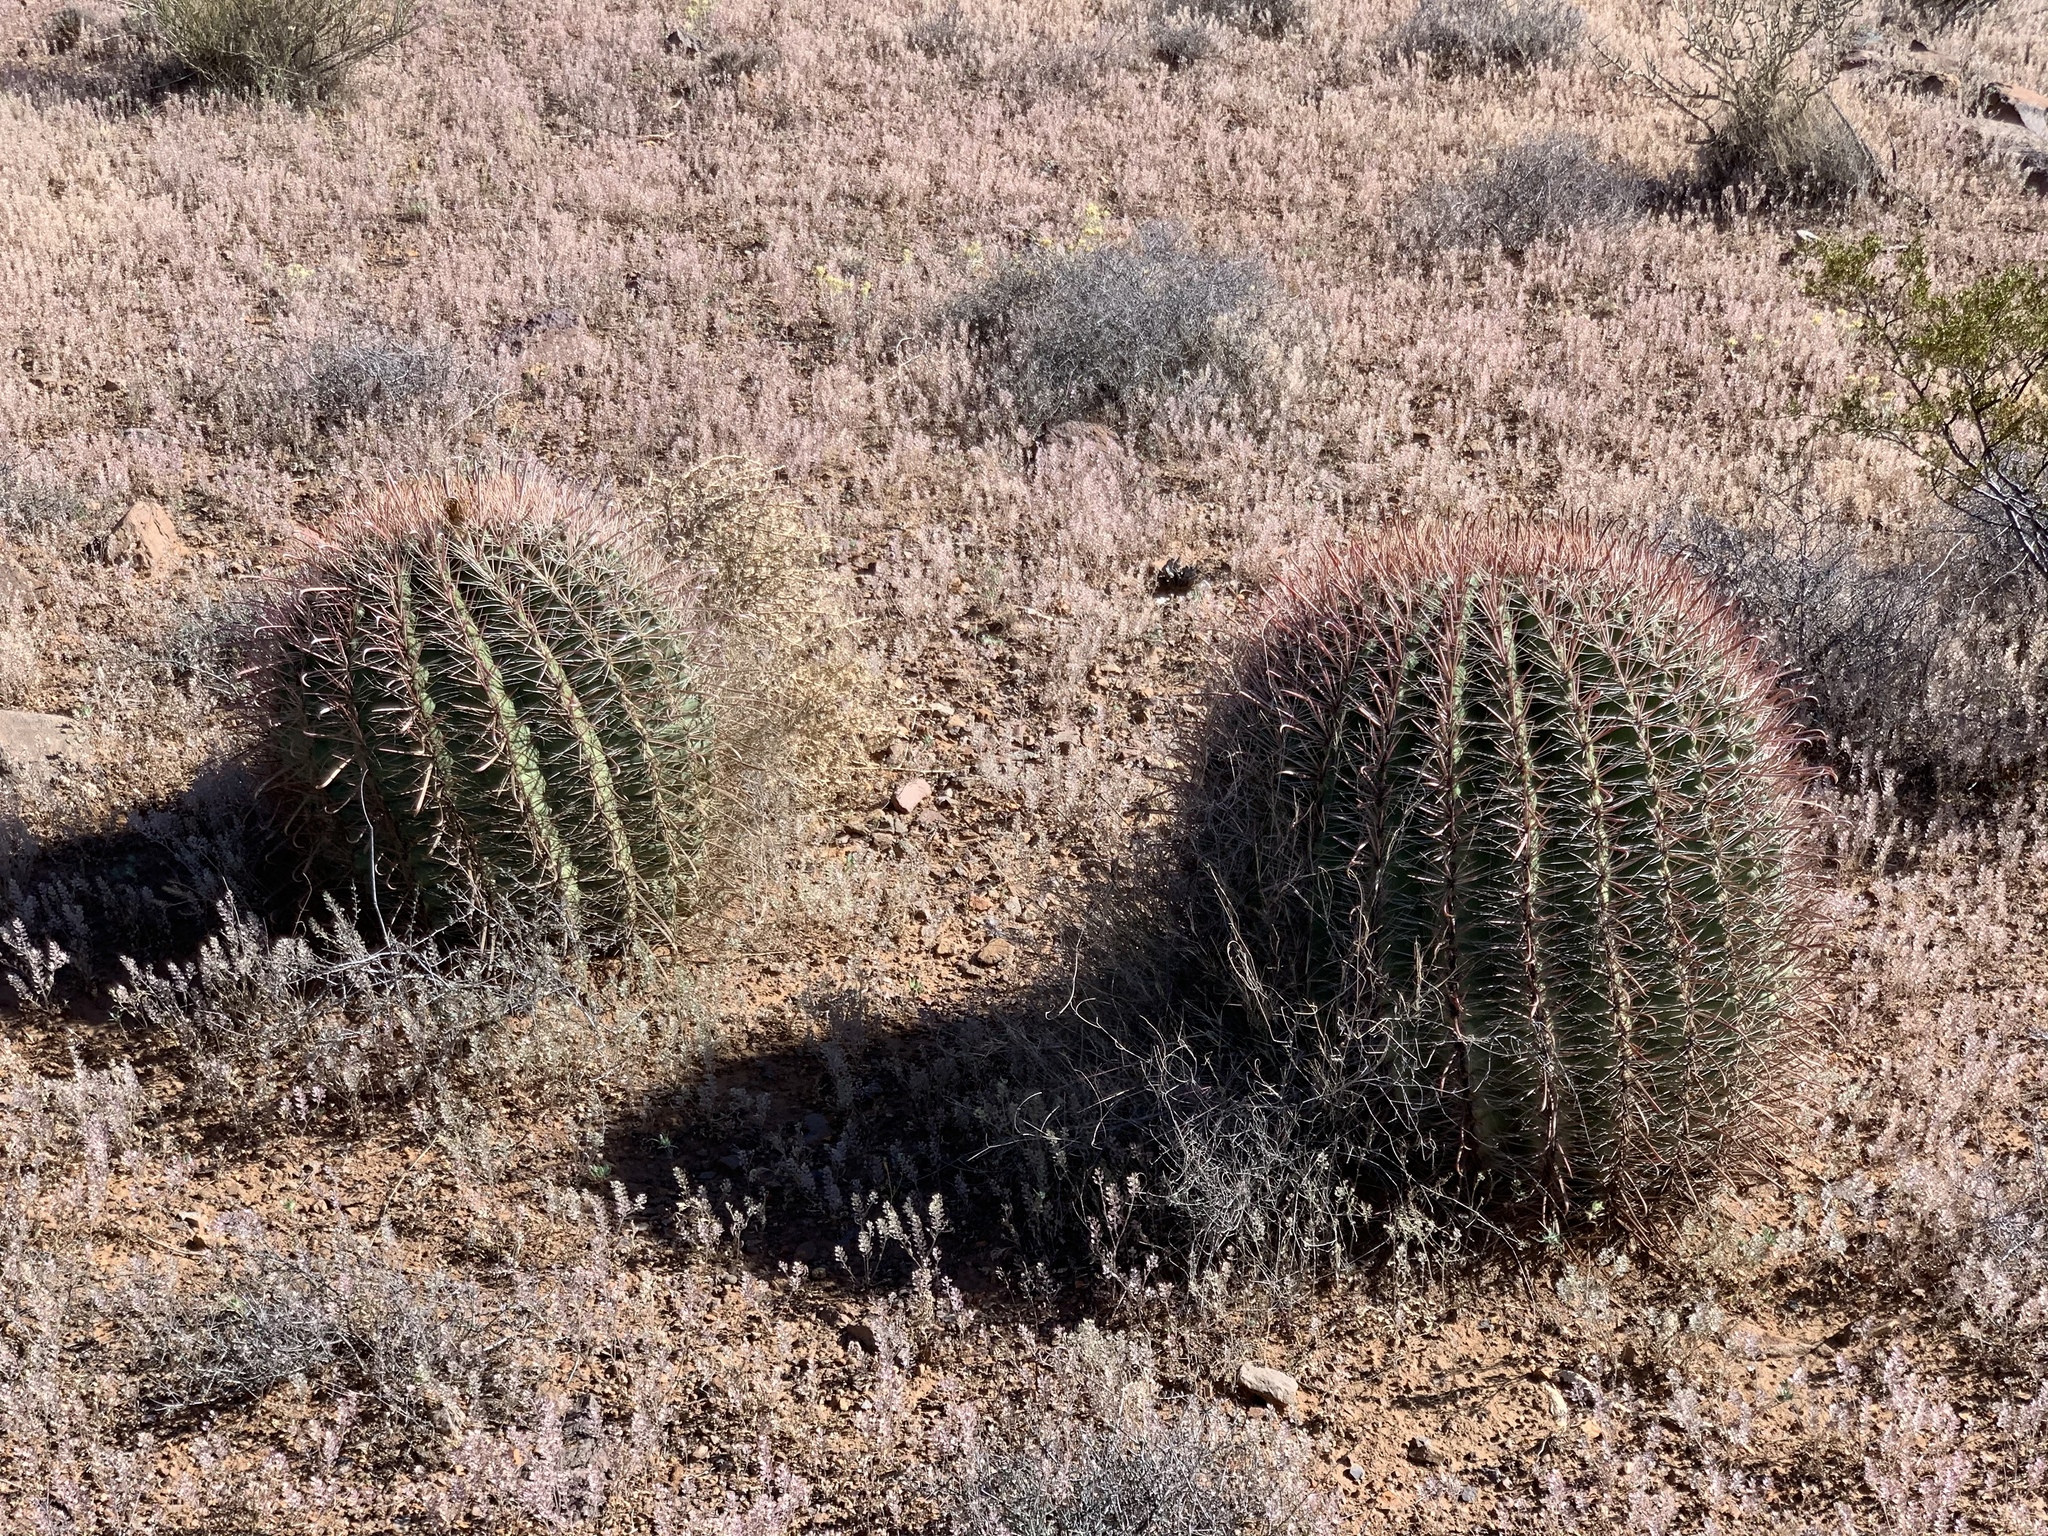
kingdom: Plantae
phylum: Tracheophyta
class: Magnoliopsida
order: Caryophyllales
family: Cactaceae
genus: Ferocactus
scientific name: Ferocactus wislizeni
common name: Candy barrel cactus
